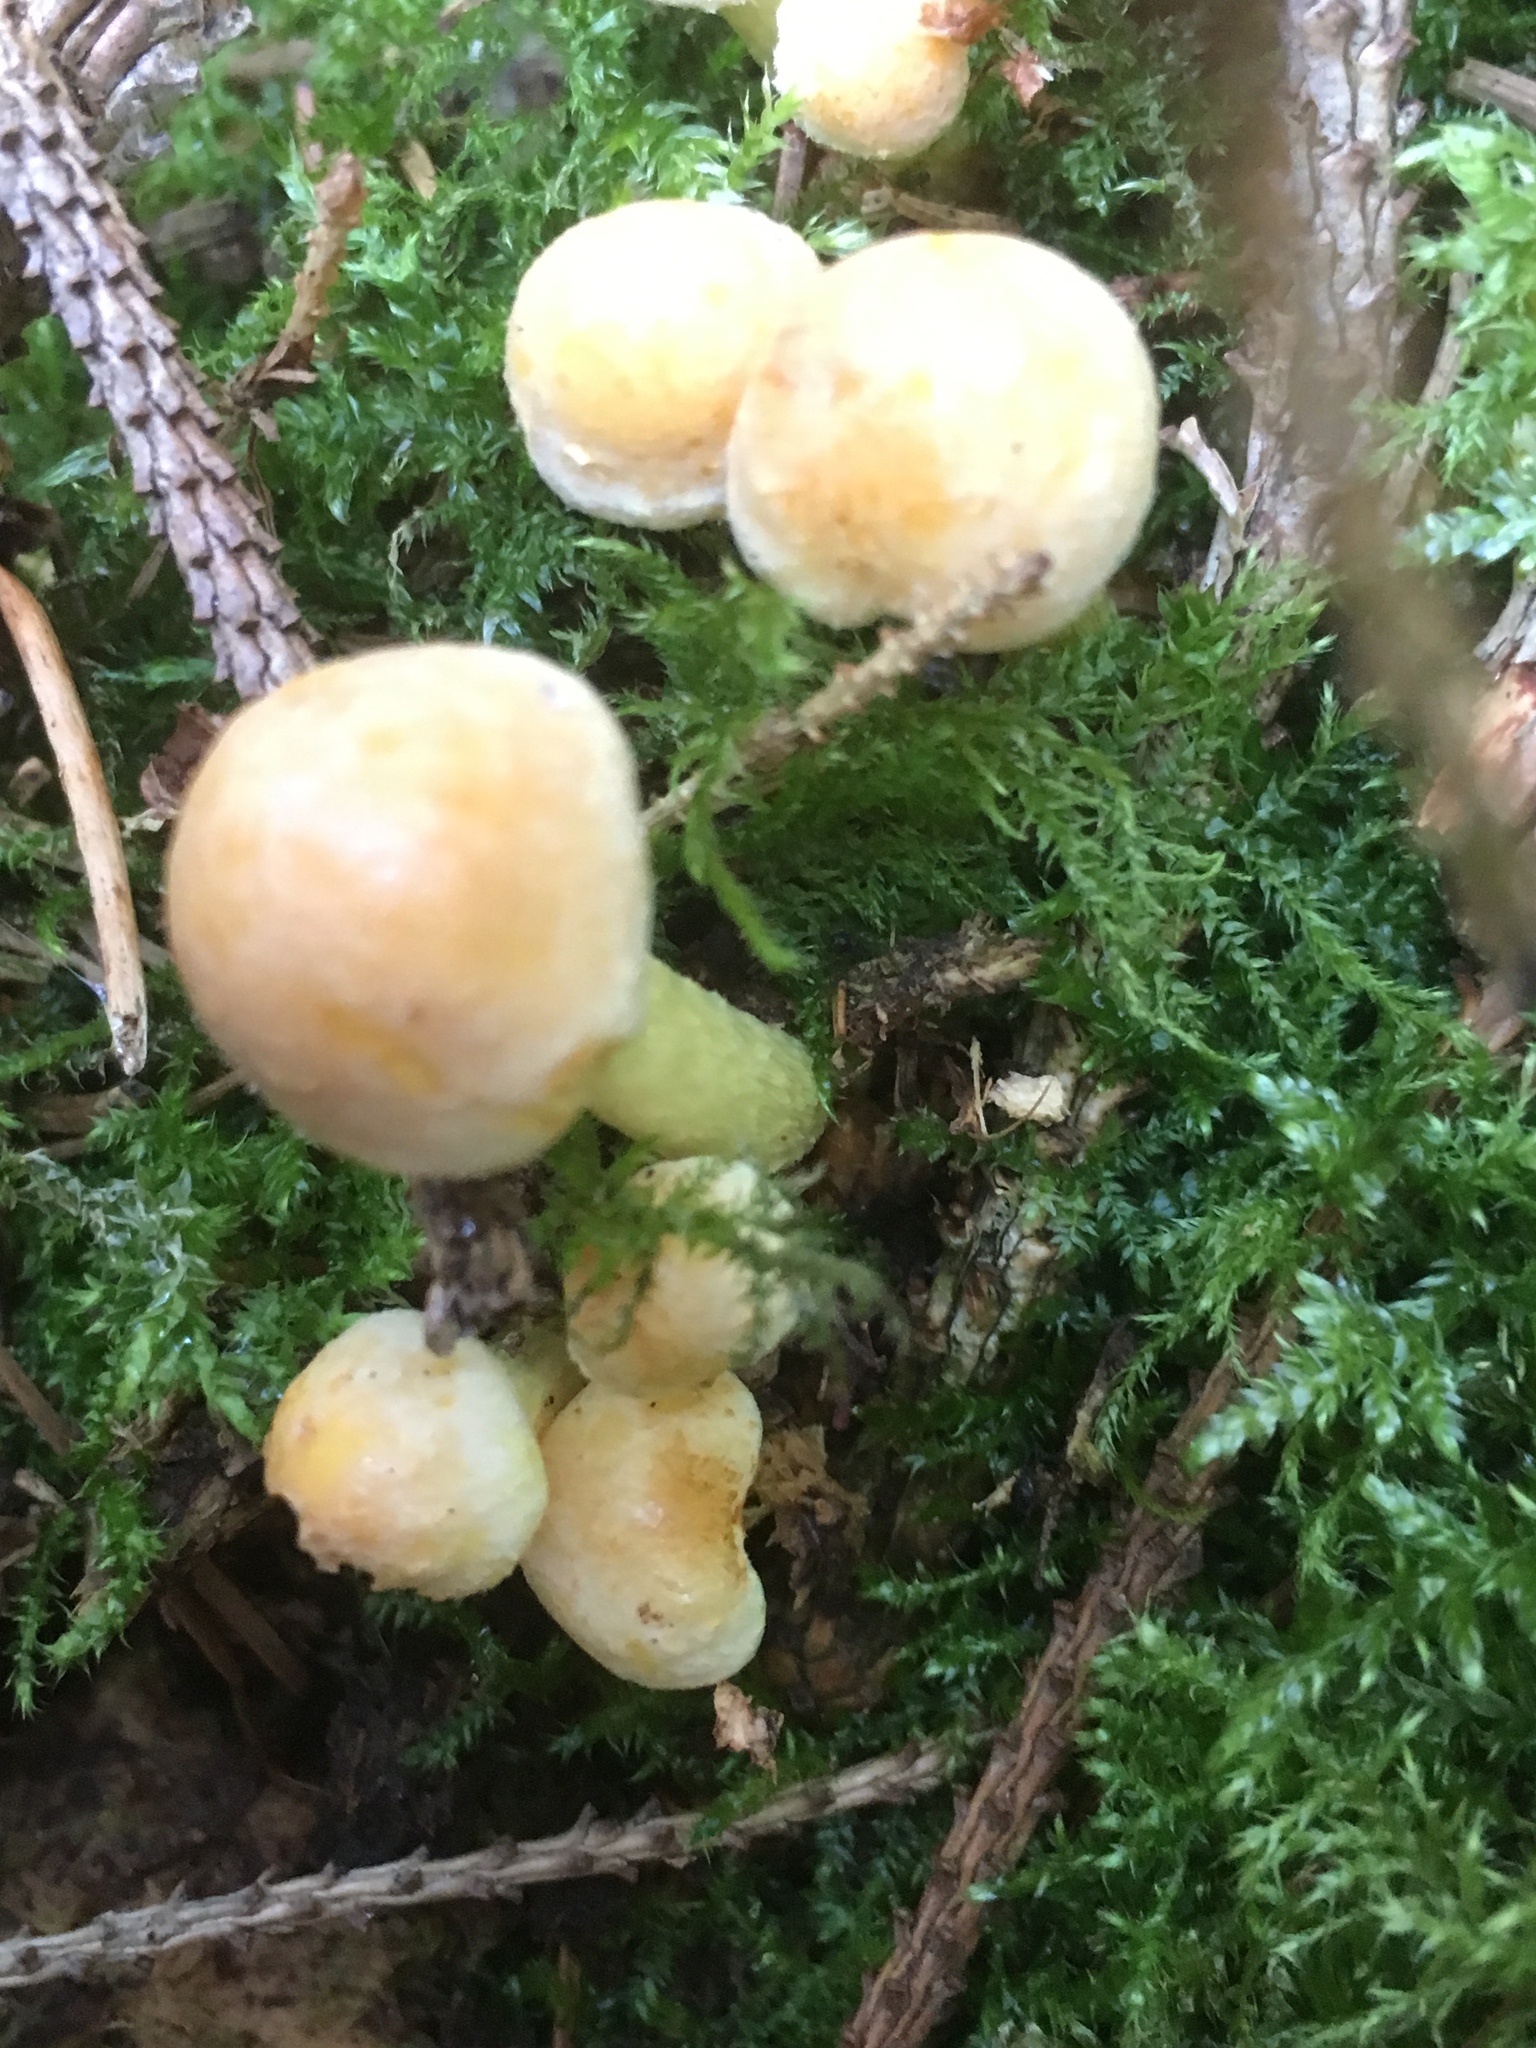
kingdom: Fungi
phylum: Basidiomycota
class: Agaricomycetes
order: Agaricales
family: Strophariaceae
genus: Hypholoma
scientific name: Hypholoma fasciculare
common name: Sulphur tuft
